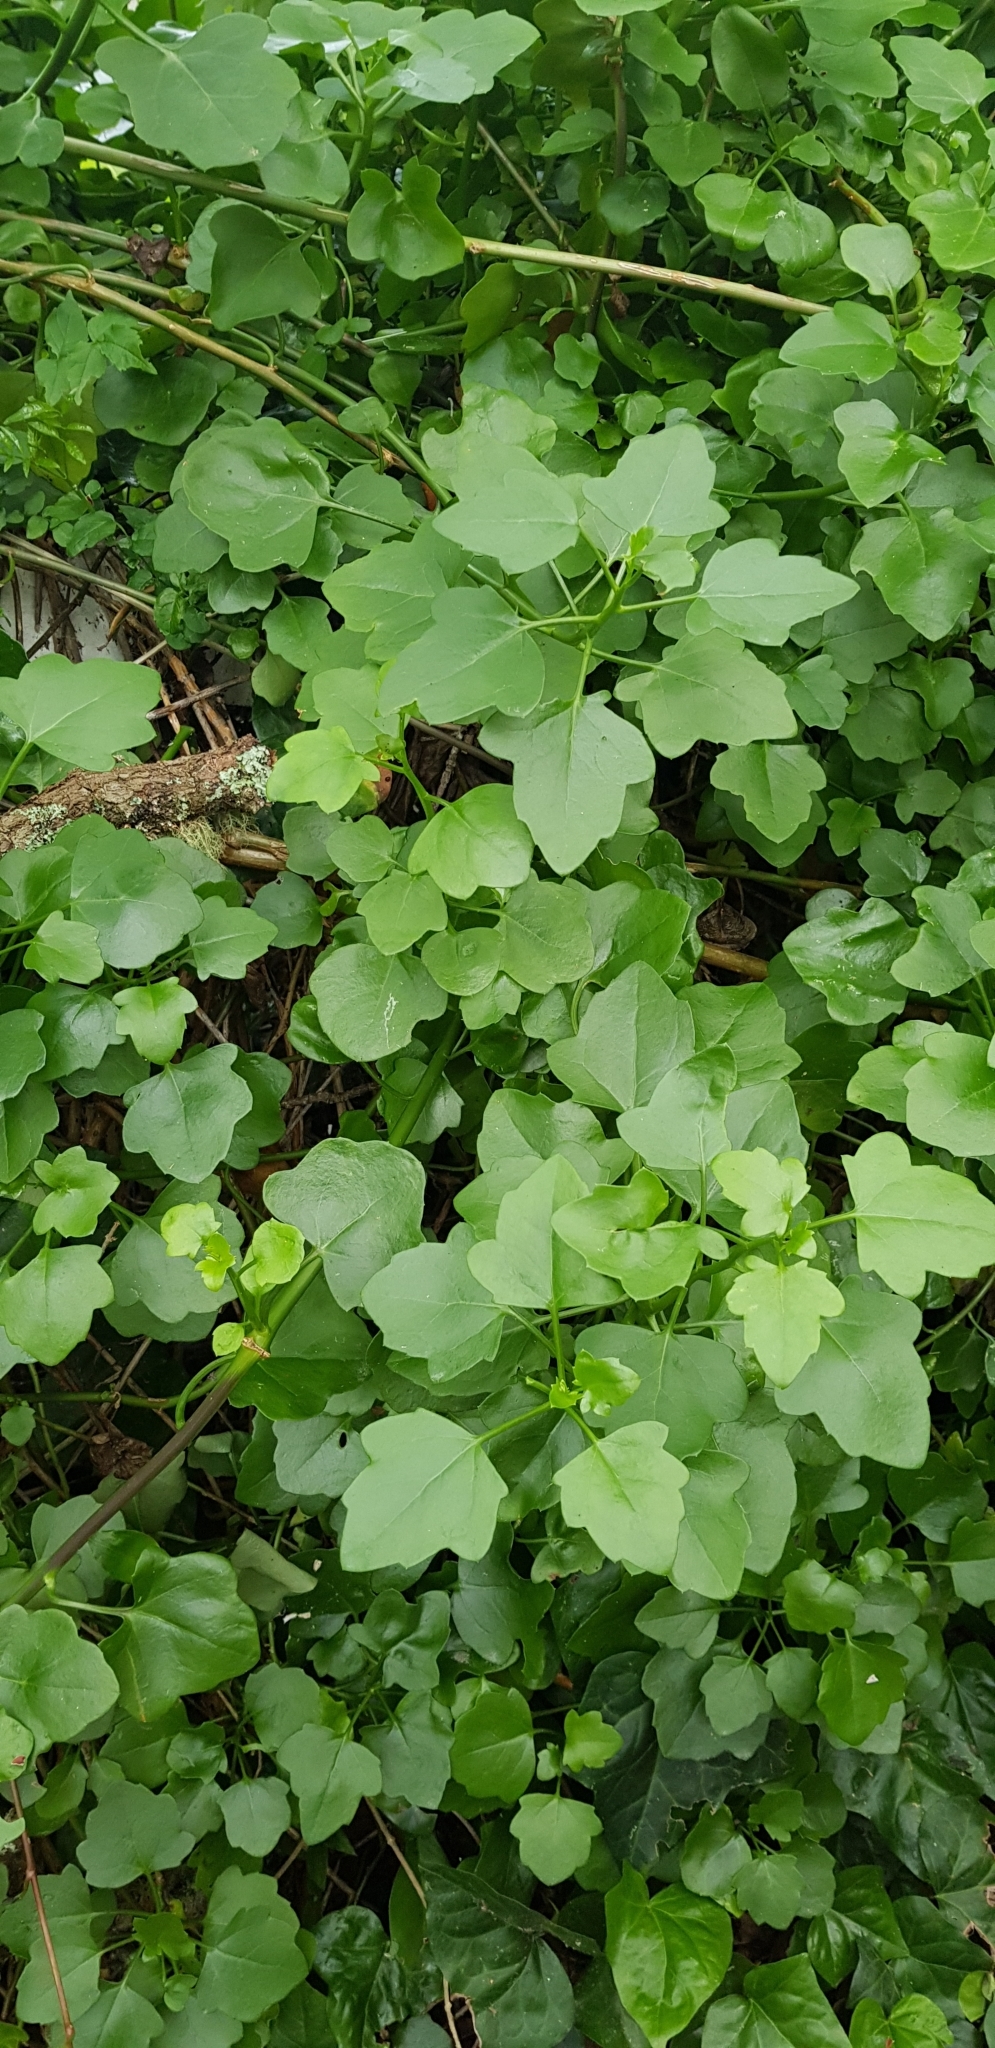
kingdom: Plantae
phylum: Tracheophyta
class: Magnoliopsida
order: Asterales
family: Asteraceae
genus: Senecio
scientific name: Senecio angulatus
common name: Climbing groundsel
